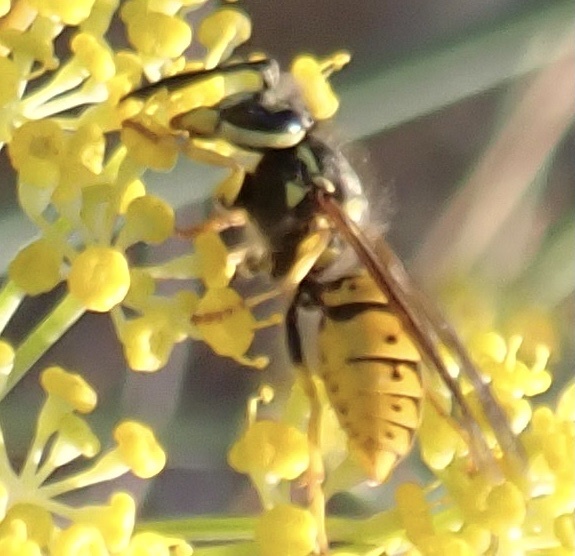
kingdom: Animalia
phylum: Arthropoda
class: Insecta
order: Hymenoptera
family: Vespidae
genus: Vespula
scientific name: Vespula germanica
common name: German wasp
